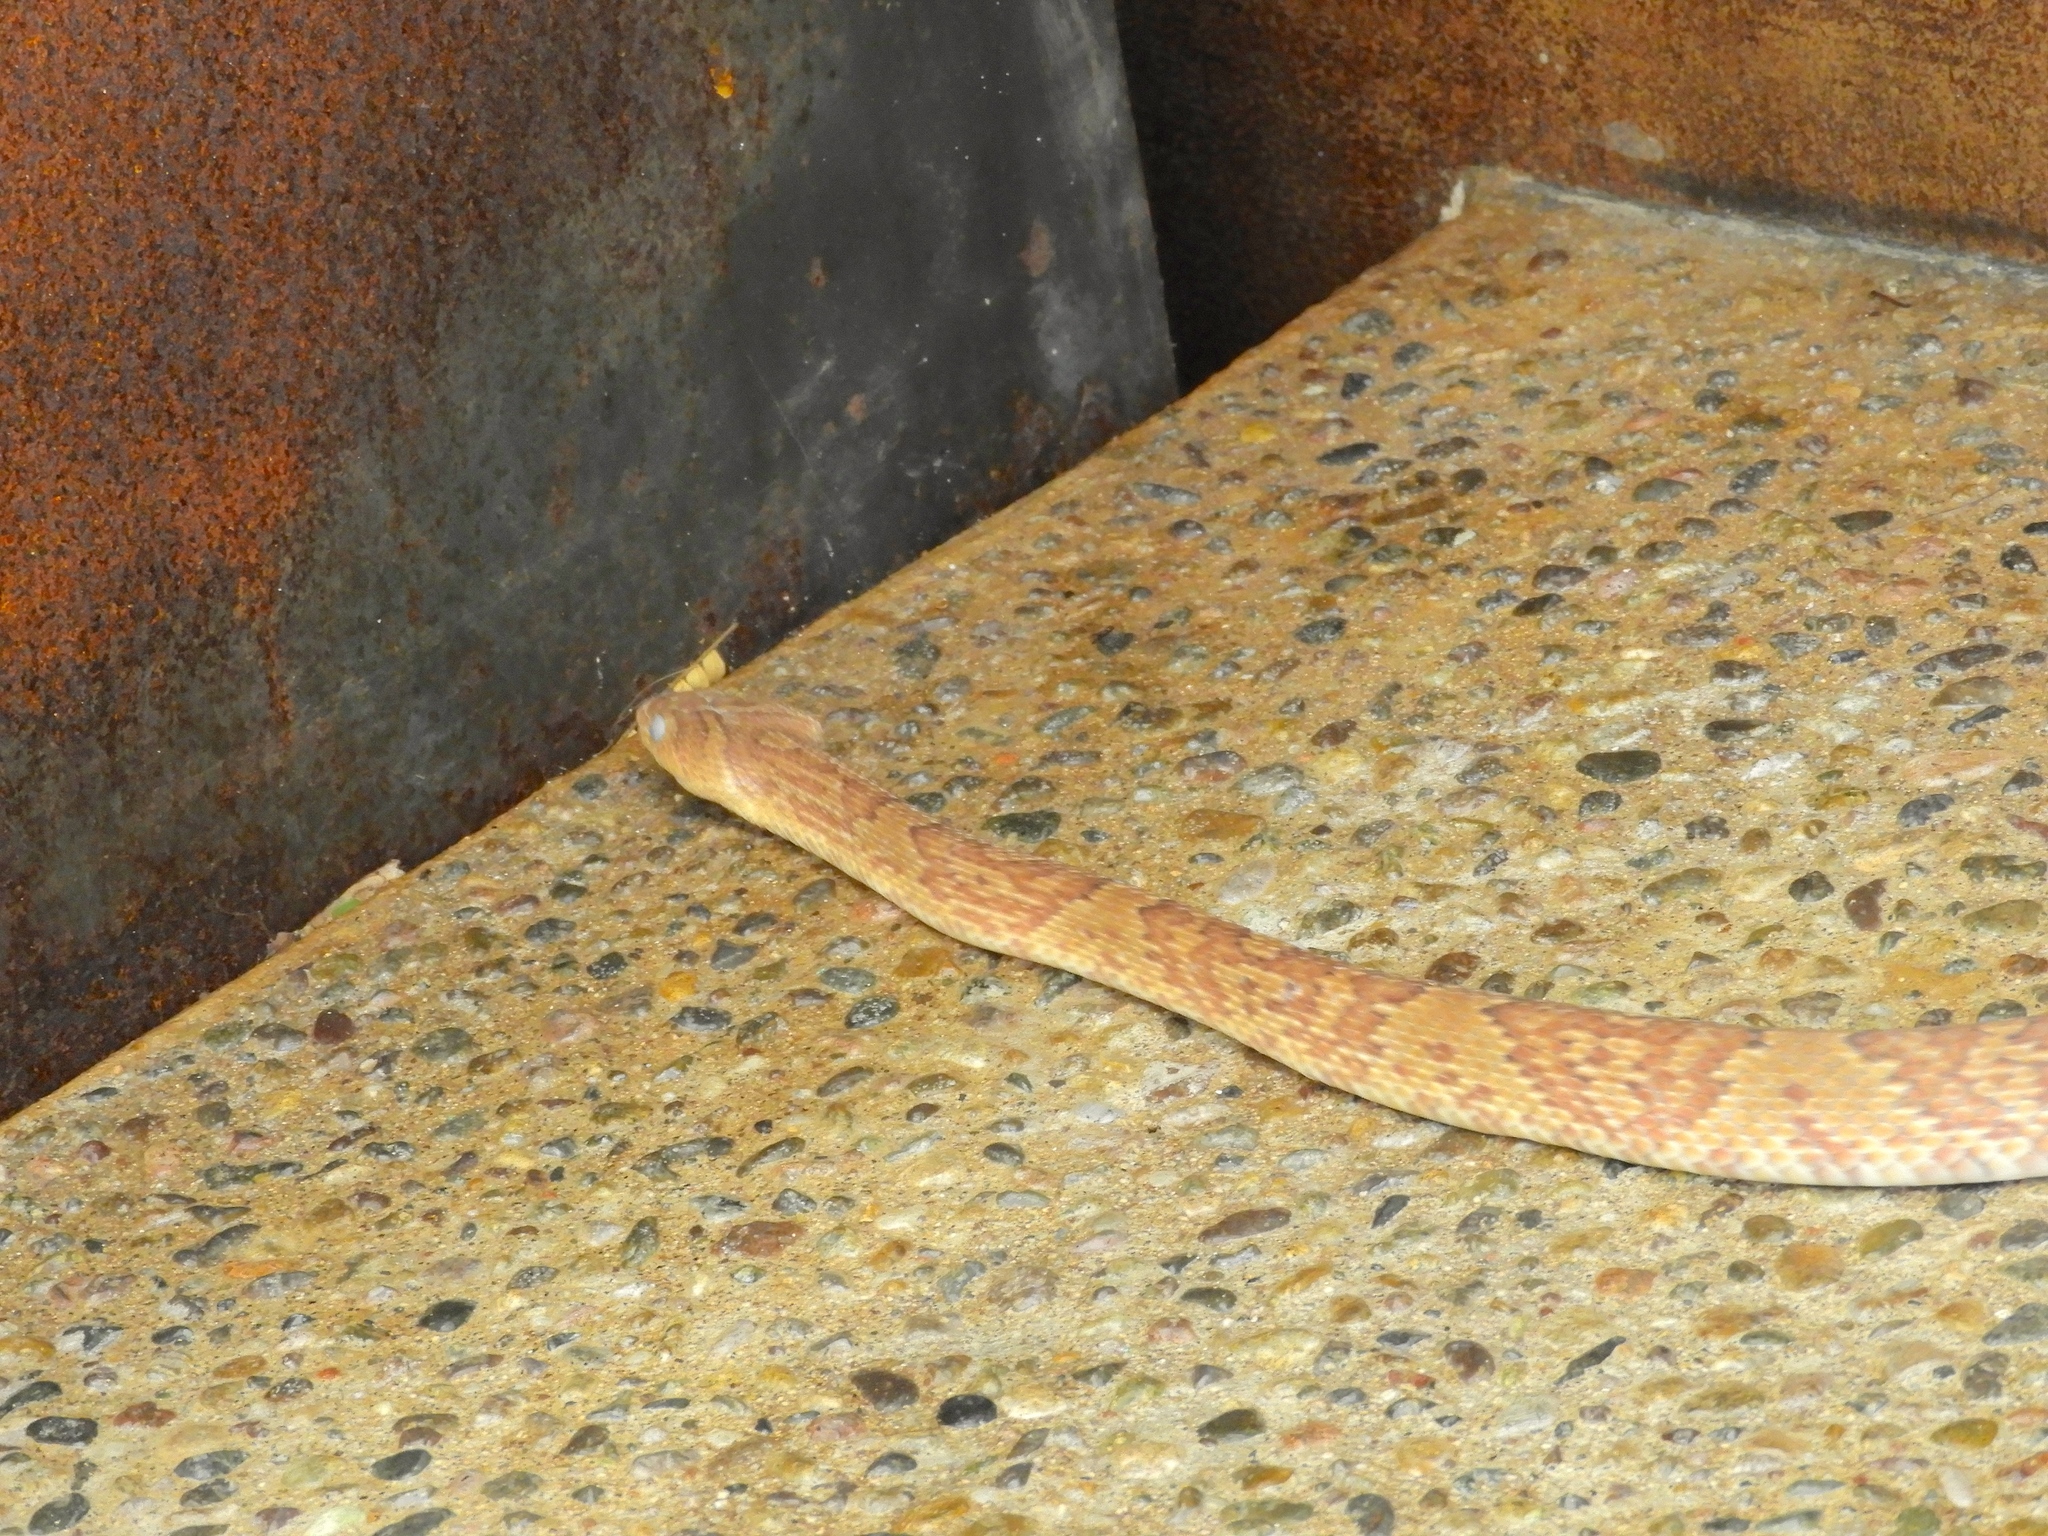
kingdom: Animalia
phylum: Chordata
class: Squamata
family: Colubridae
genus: Trimorphodon
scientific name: Trimorphodon paucimaculatus
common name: Sinaloan lyresnake
